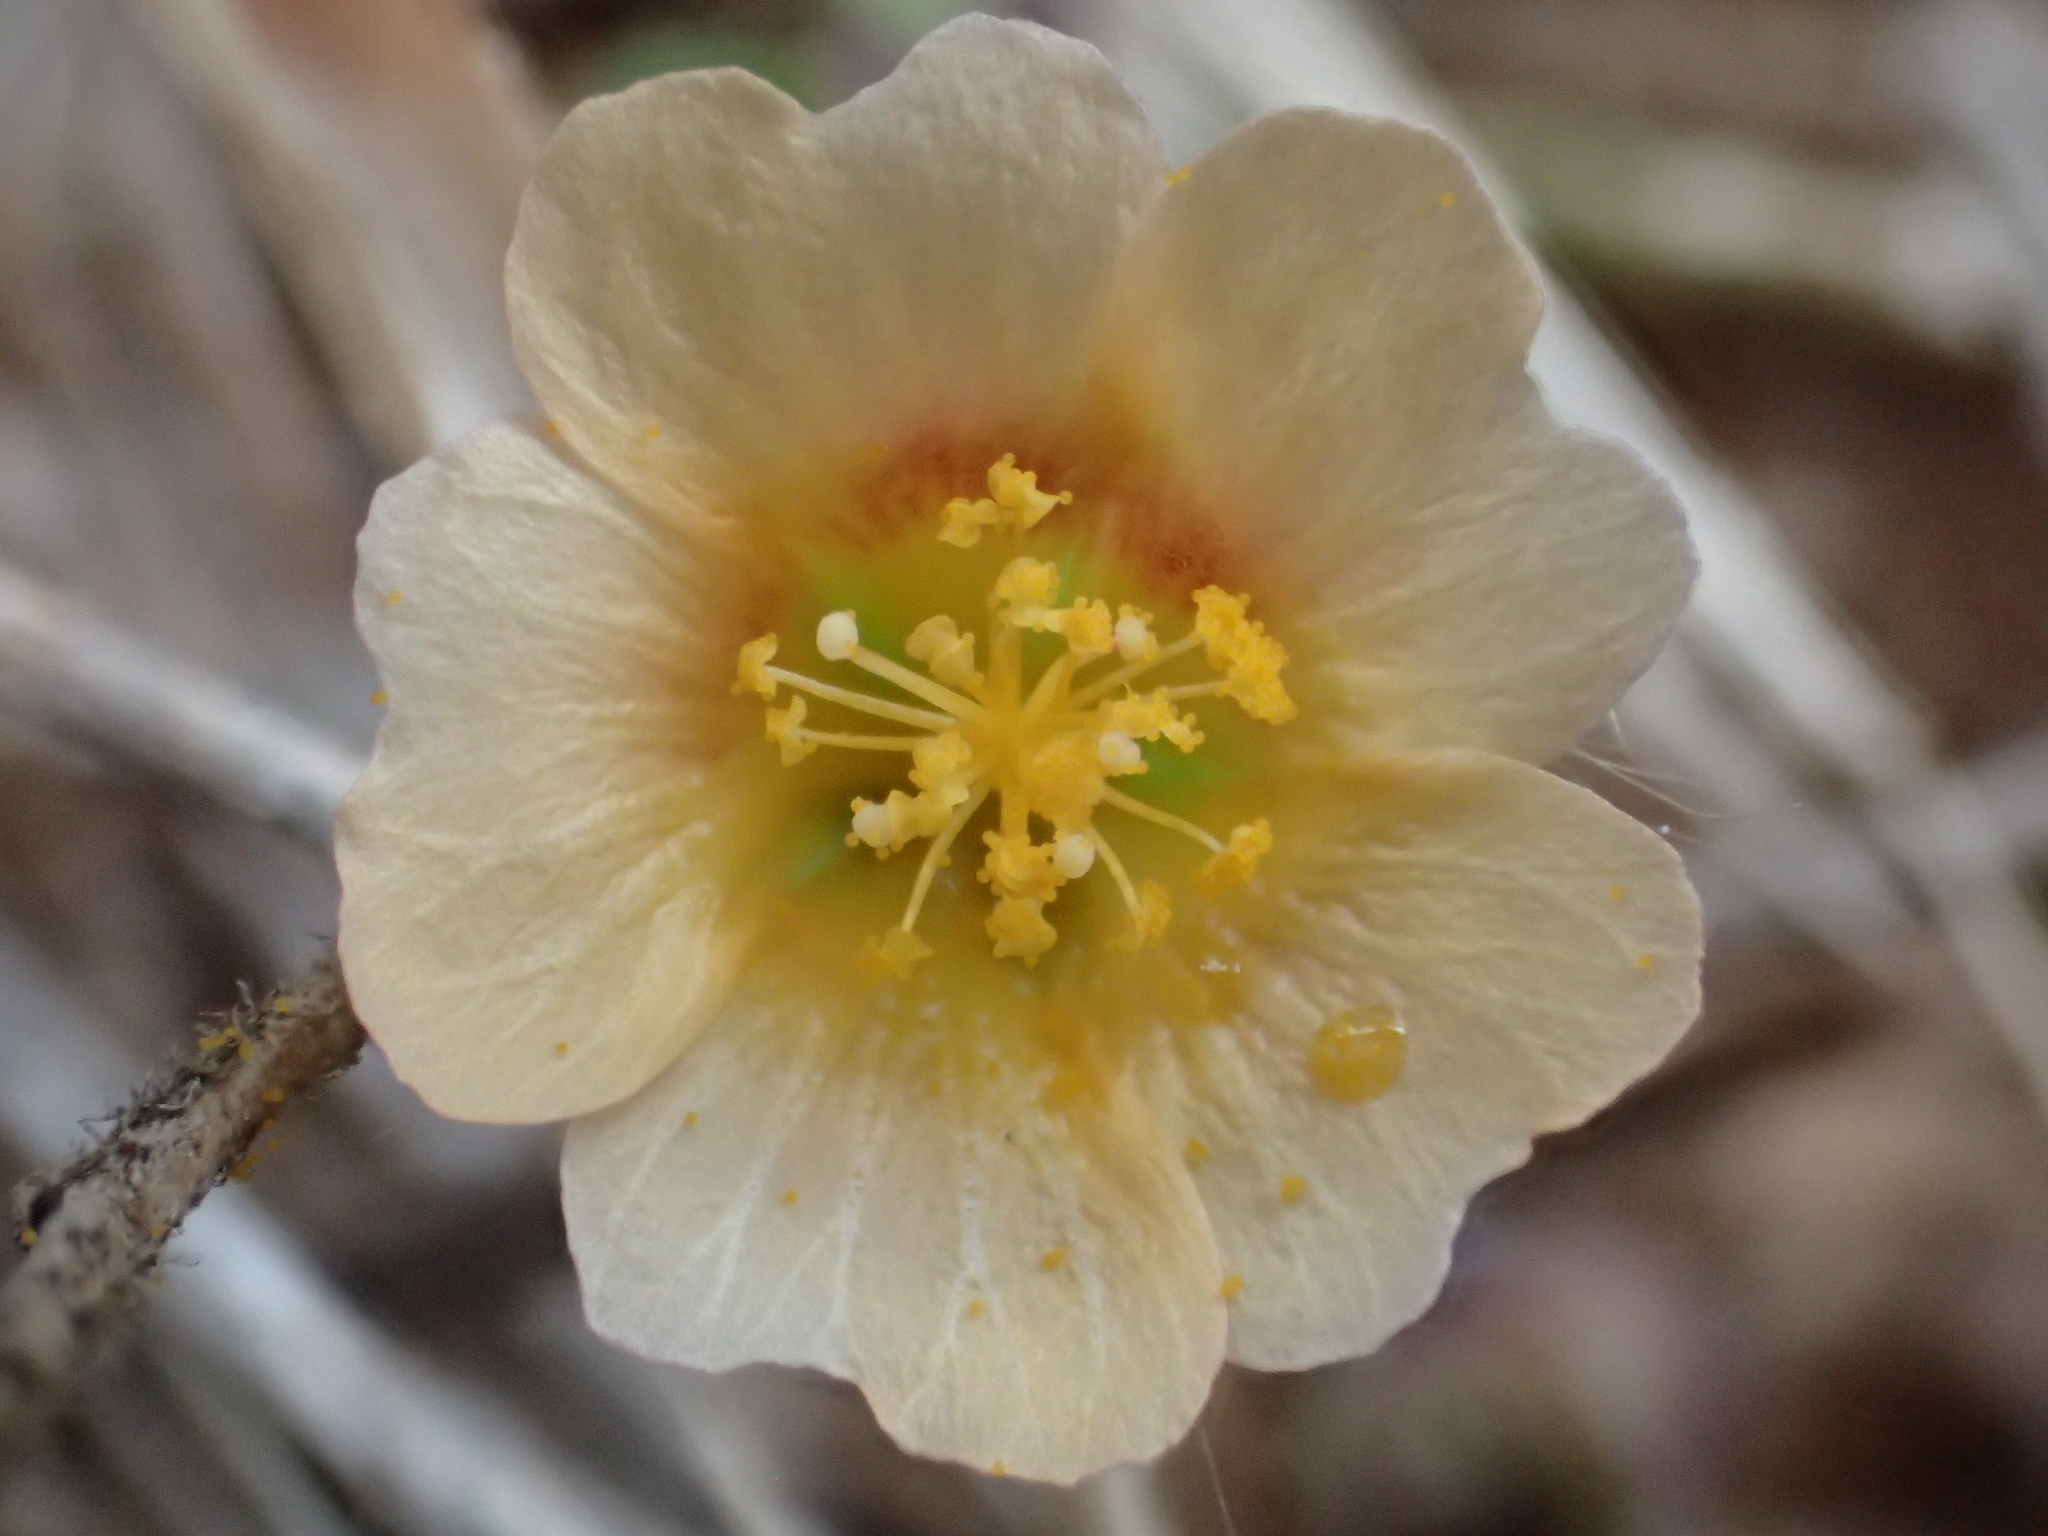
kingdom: Plantae
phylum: Tracheophyta
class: Magnoliopsida
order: Malvales
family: Malvaceae
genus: Sida
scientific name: Sida cordata
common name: Long-stalk sida
